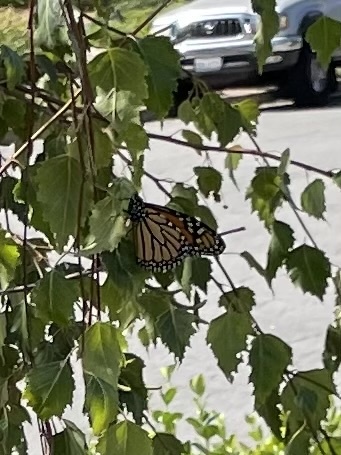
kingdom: Animalia
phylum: Arthropoda
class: Insecta
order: Lepidoptera
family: Nymphalidae
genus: Danaus
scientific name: Danaus plexippus
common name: Monarch
